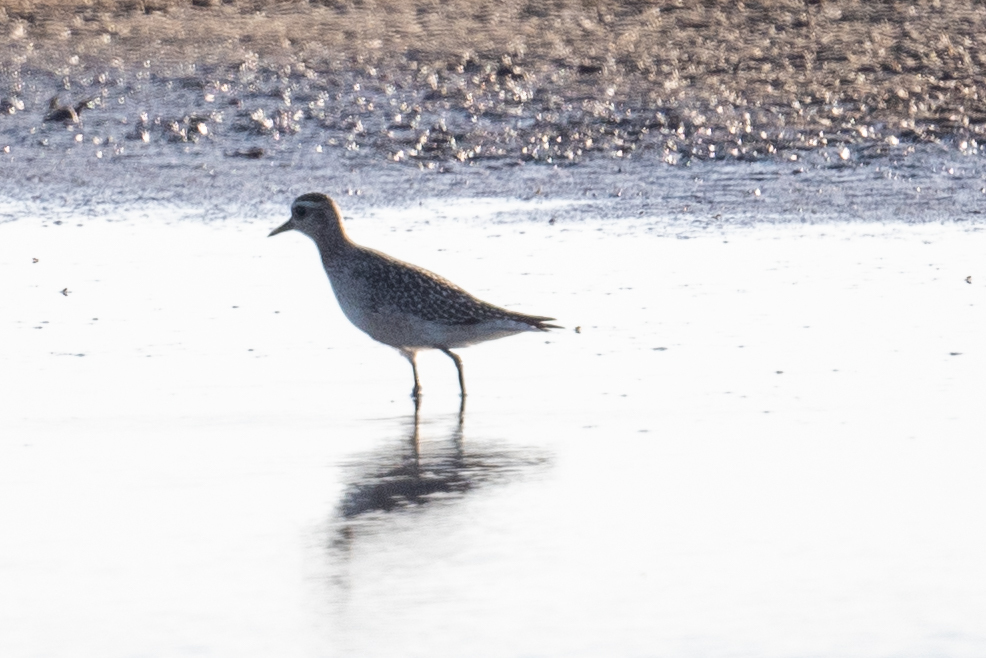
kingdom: Animalia
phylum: Chordata
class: Aves
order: Charadriiformes
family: Charadriidae
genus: Pluvialis
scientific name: Pluvialis squatarola
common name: Grey plover
